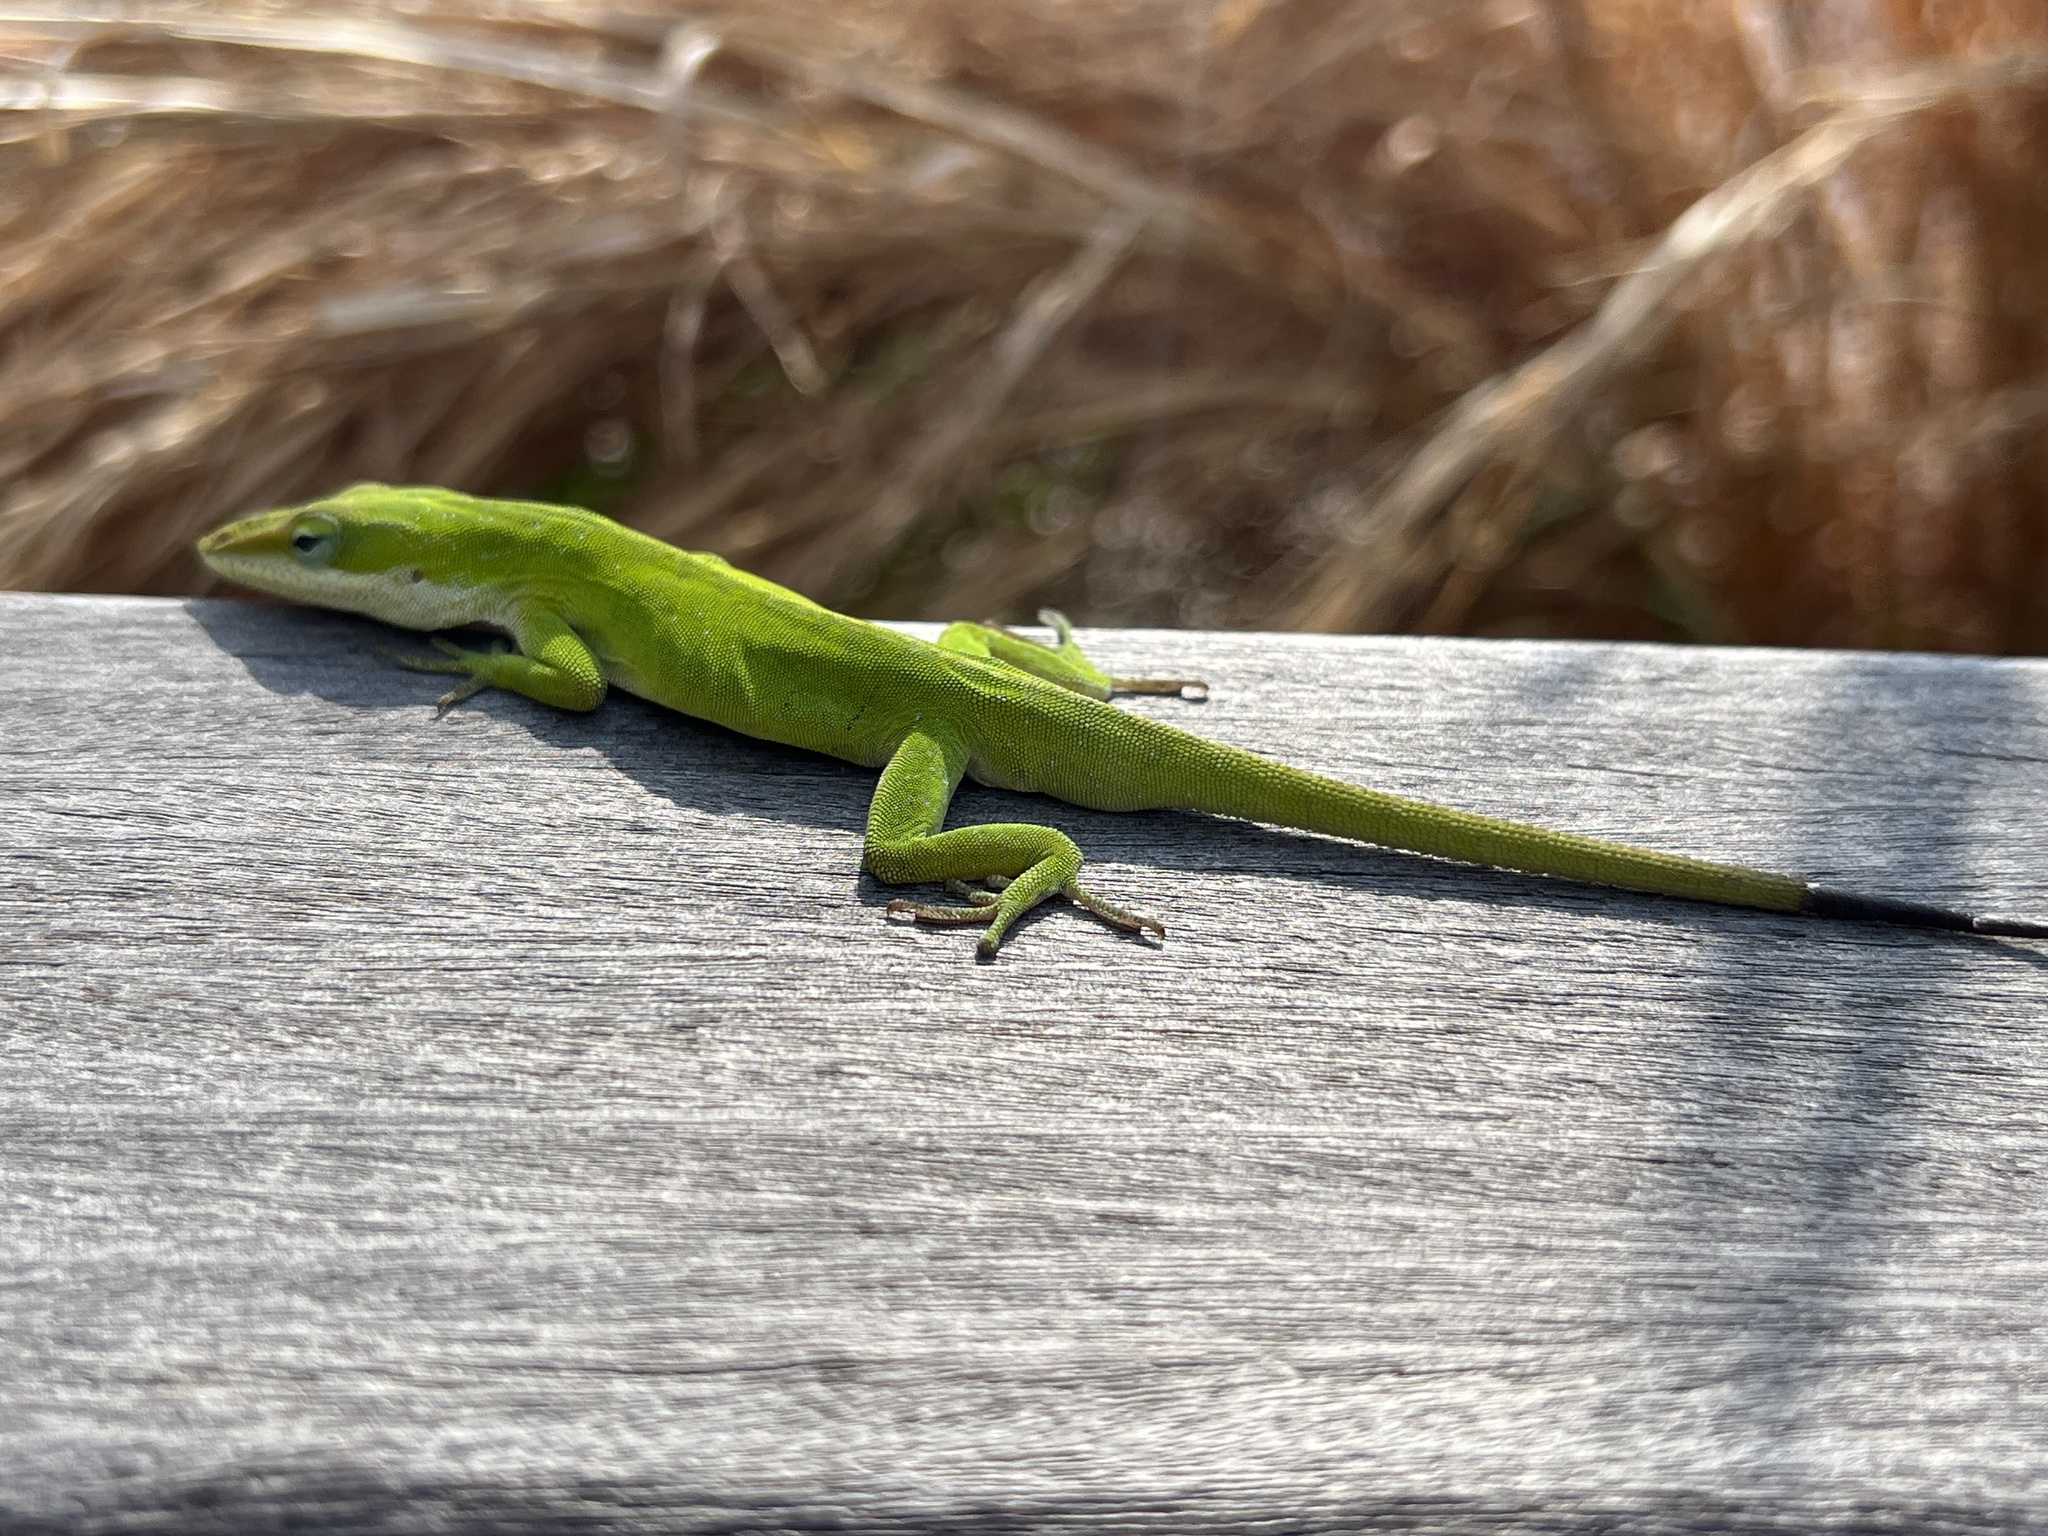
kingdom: Animalia
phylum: Chordata
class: Squamata
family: Dactyloidae
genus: Anolis
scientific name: Anolis carolinensis
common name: Green anole
